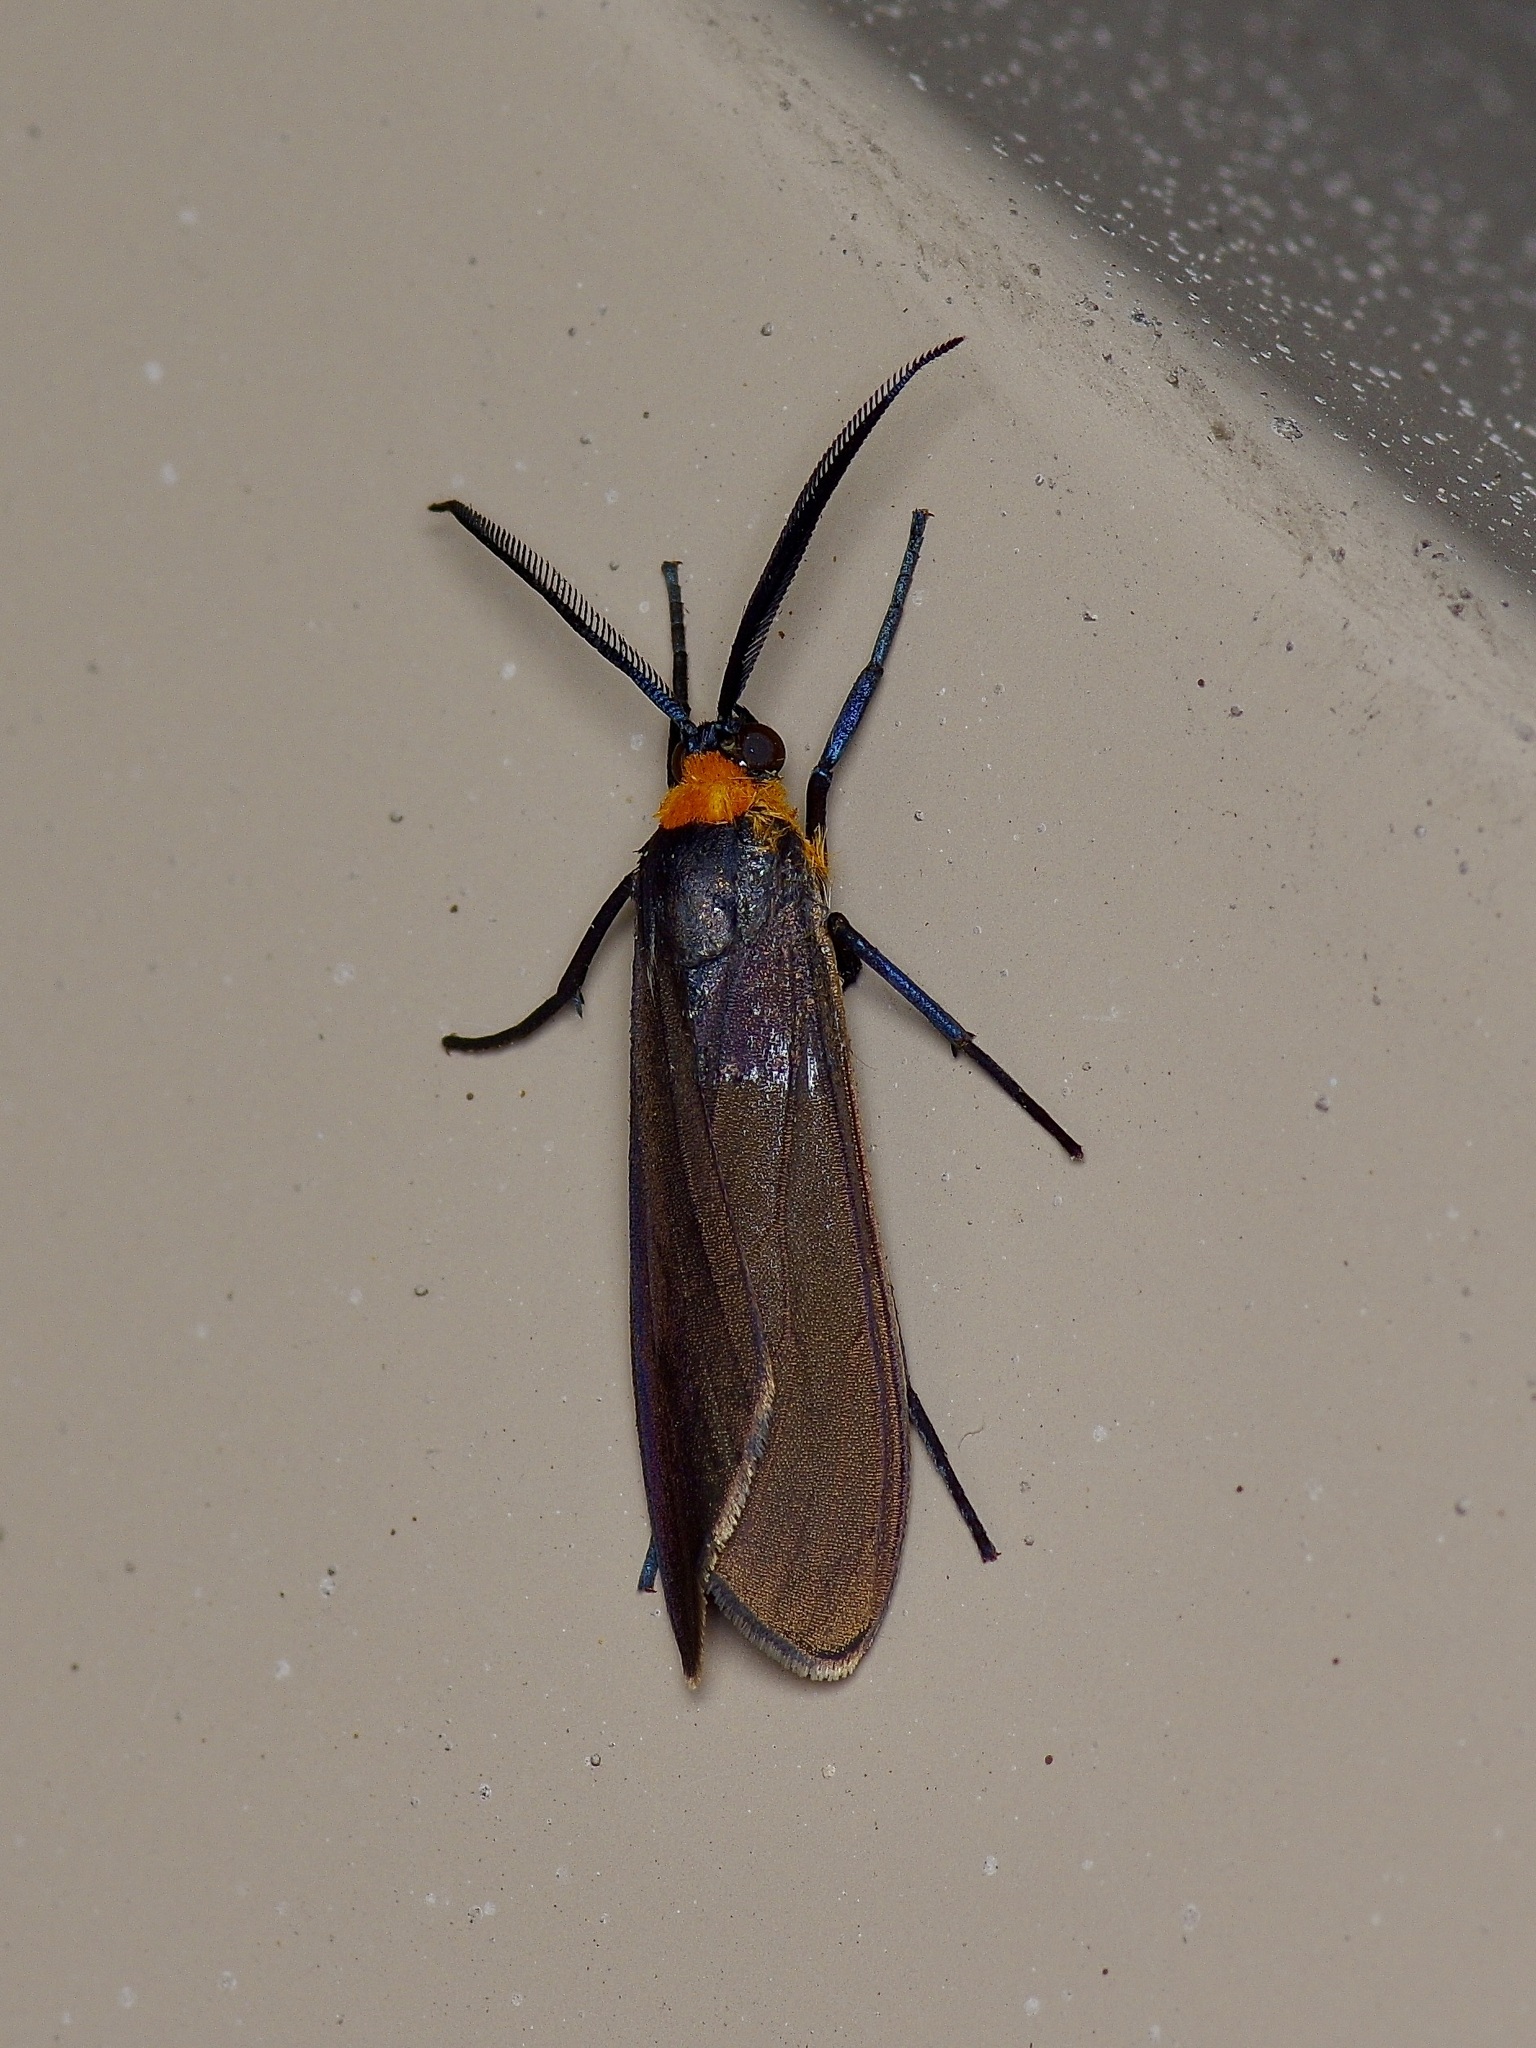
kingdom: Animalia
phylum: Arthropoda
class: Insecta
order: Lepidoptera
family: Erebidae
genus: Cisseps
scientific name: Cisseps fulvicollis
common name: Yellow-collared scape moth
